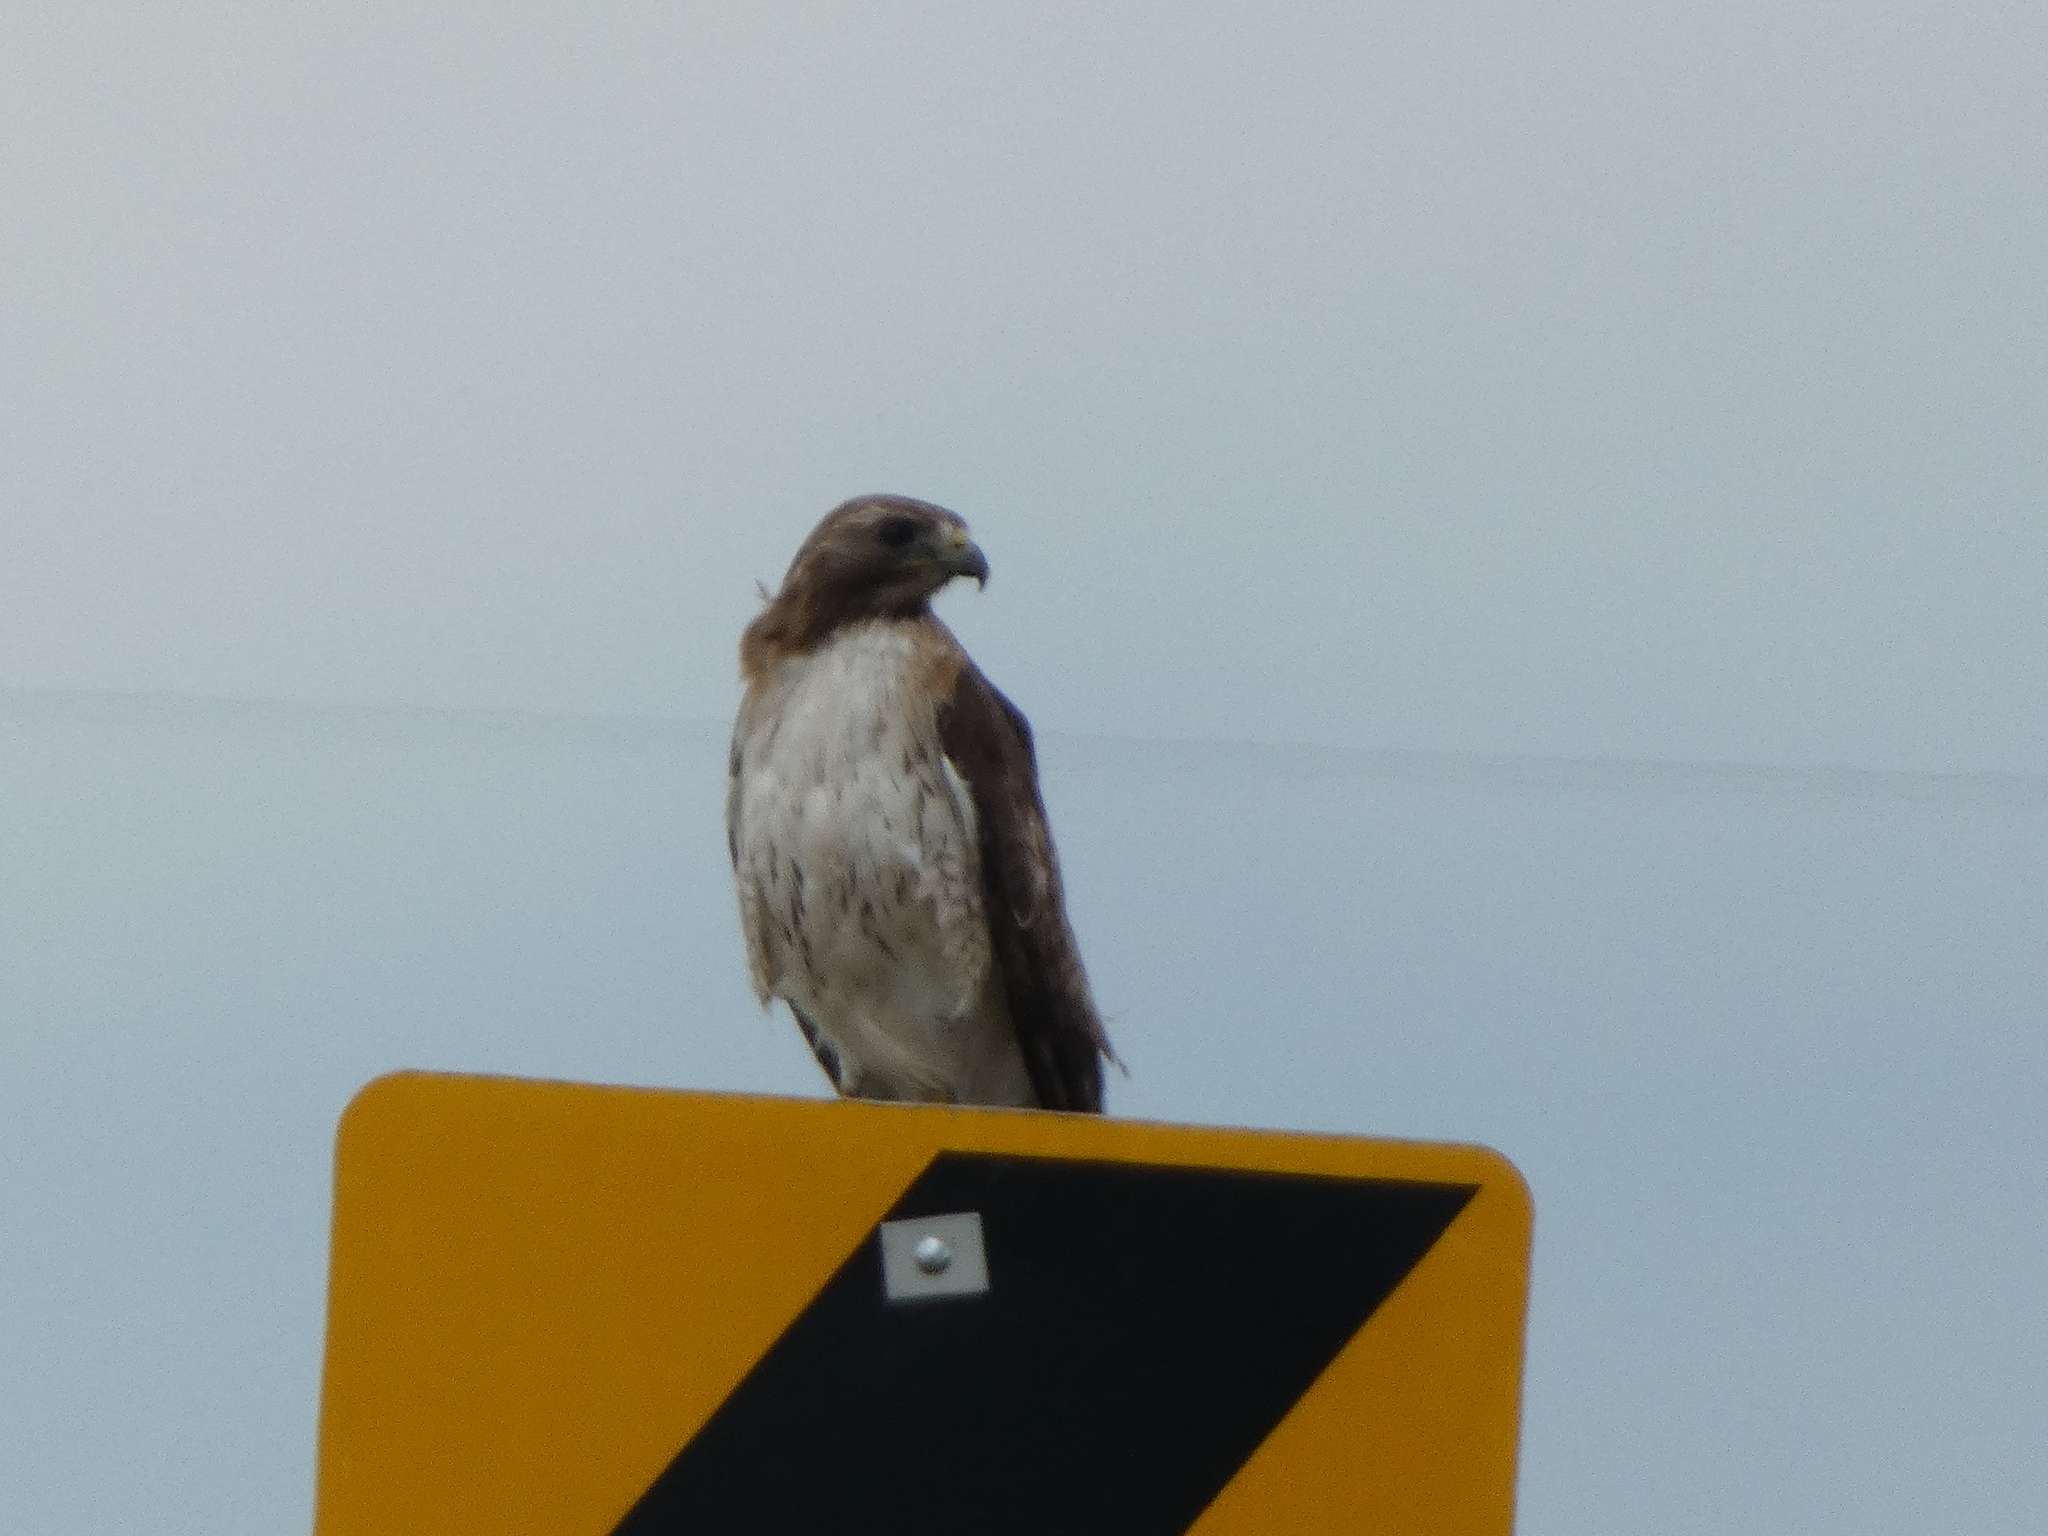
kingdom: Animalia
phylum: Chordata
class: Aves
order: Accipitriformes
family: Accipitridae
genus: Buteo
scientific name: Buteo jamaicensis
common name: Red-tailed hawk
